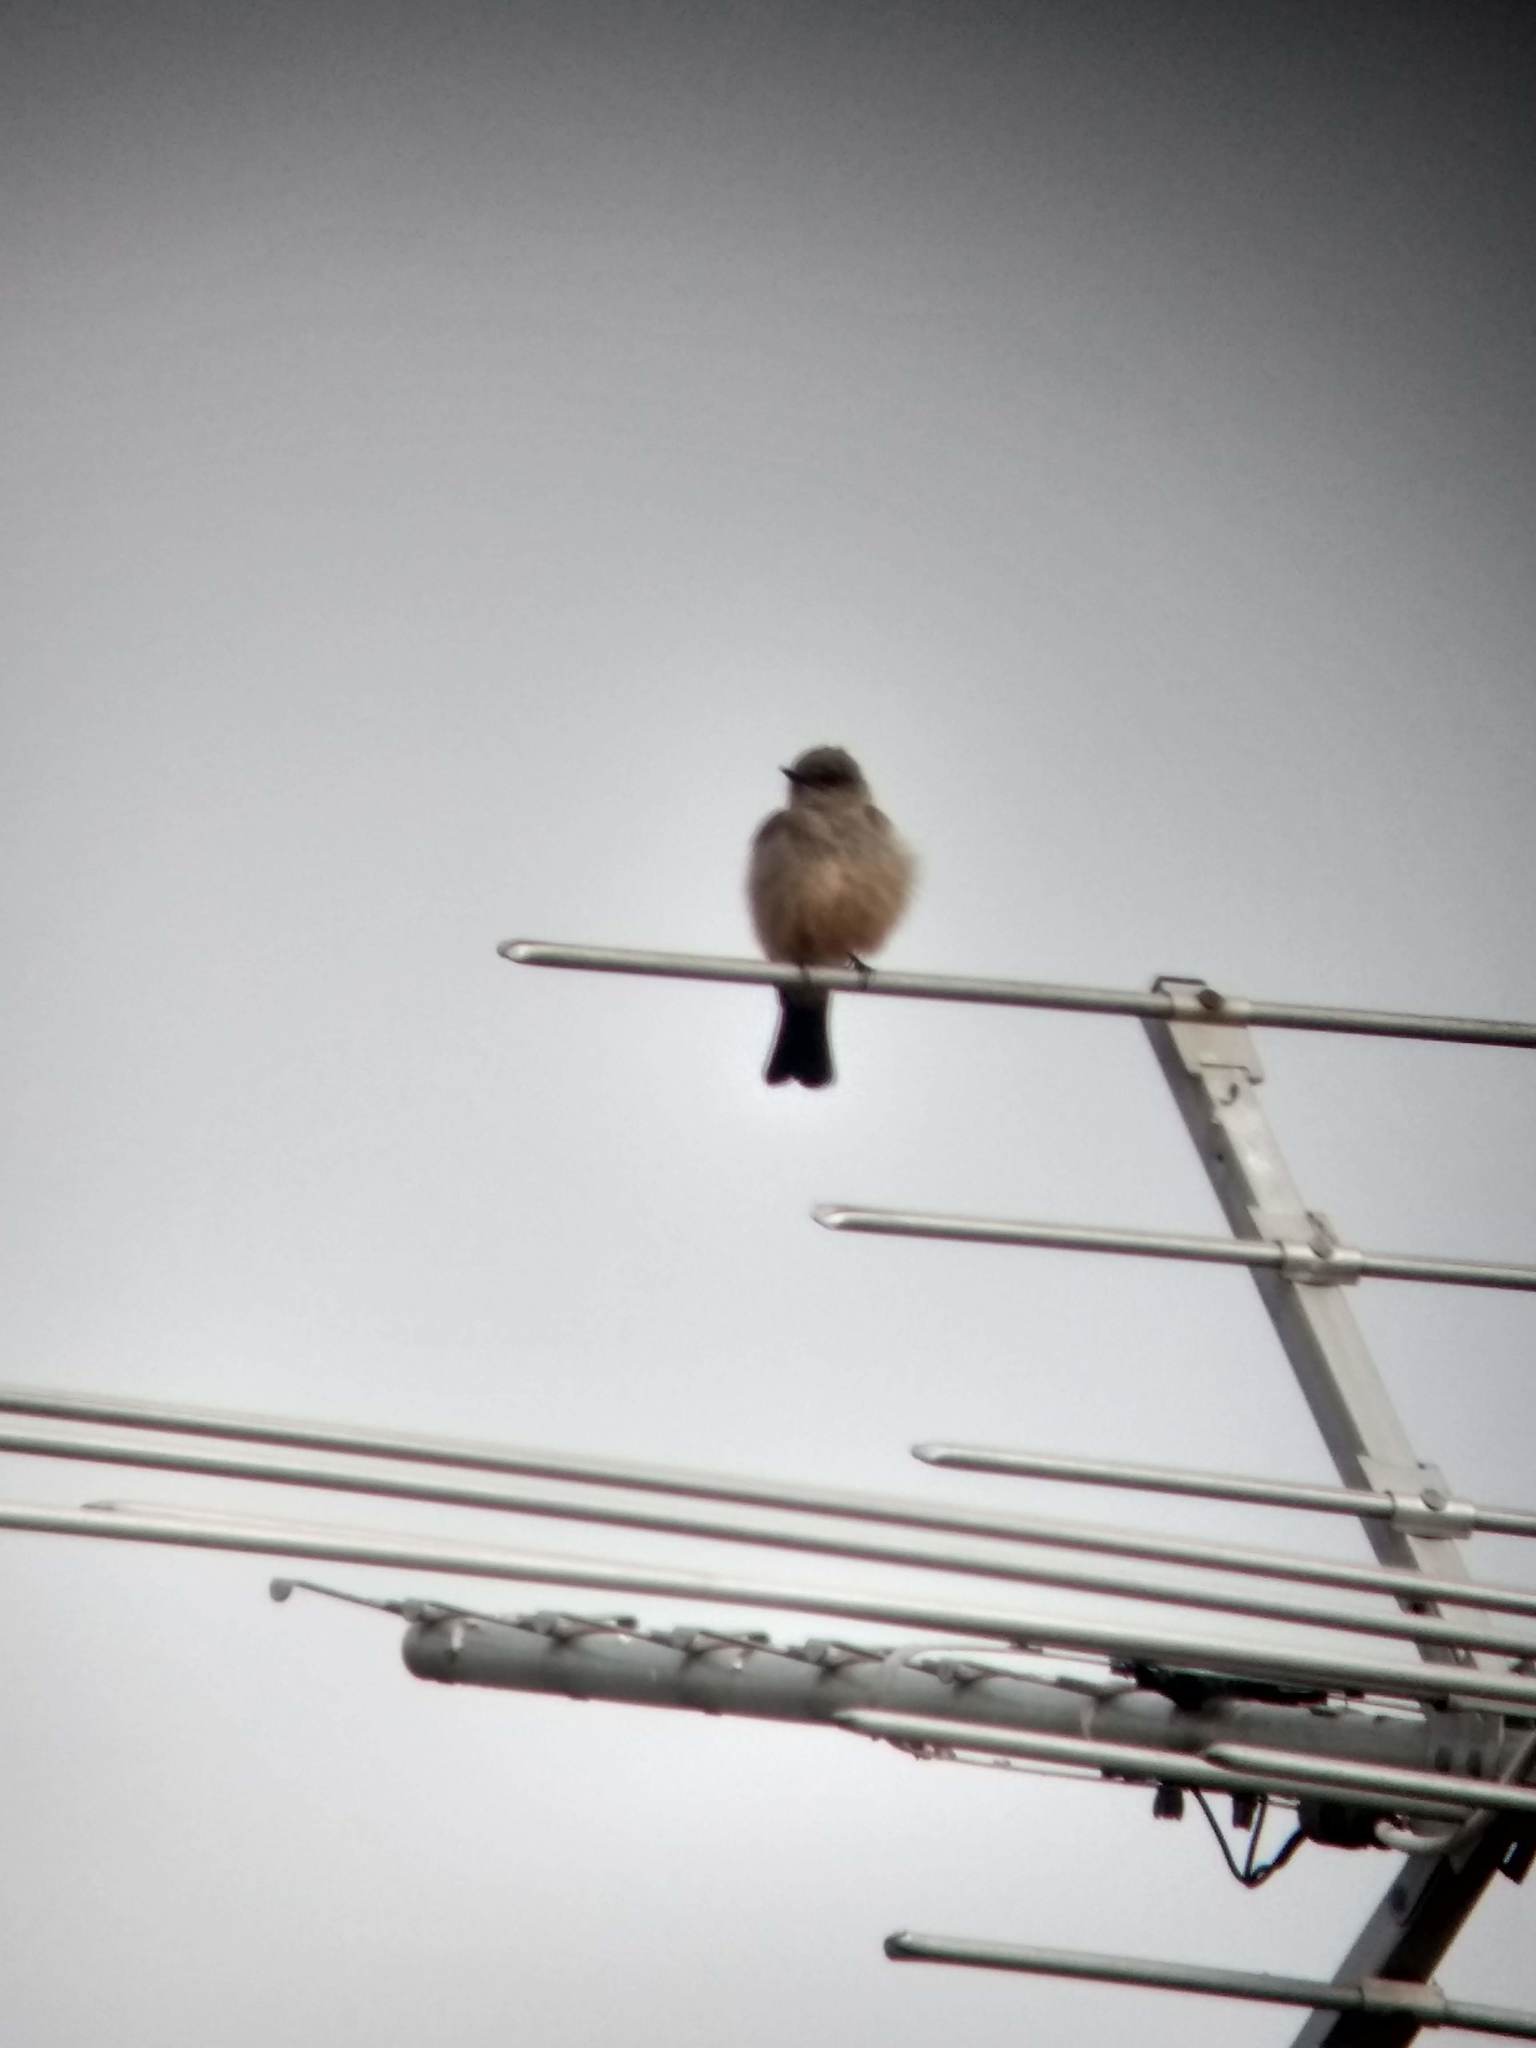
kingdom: Animalia
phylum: Chordata
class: Aves
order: Passeriformes
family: Tyrannidae
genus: Sayornis
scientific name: Sayornis saya
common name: Say's phoebe
